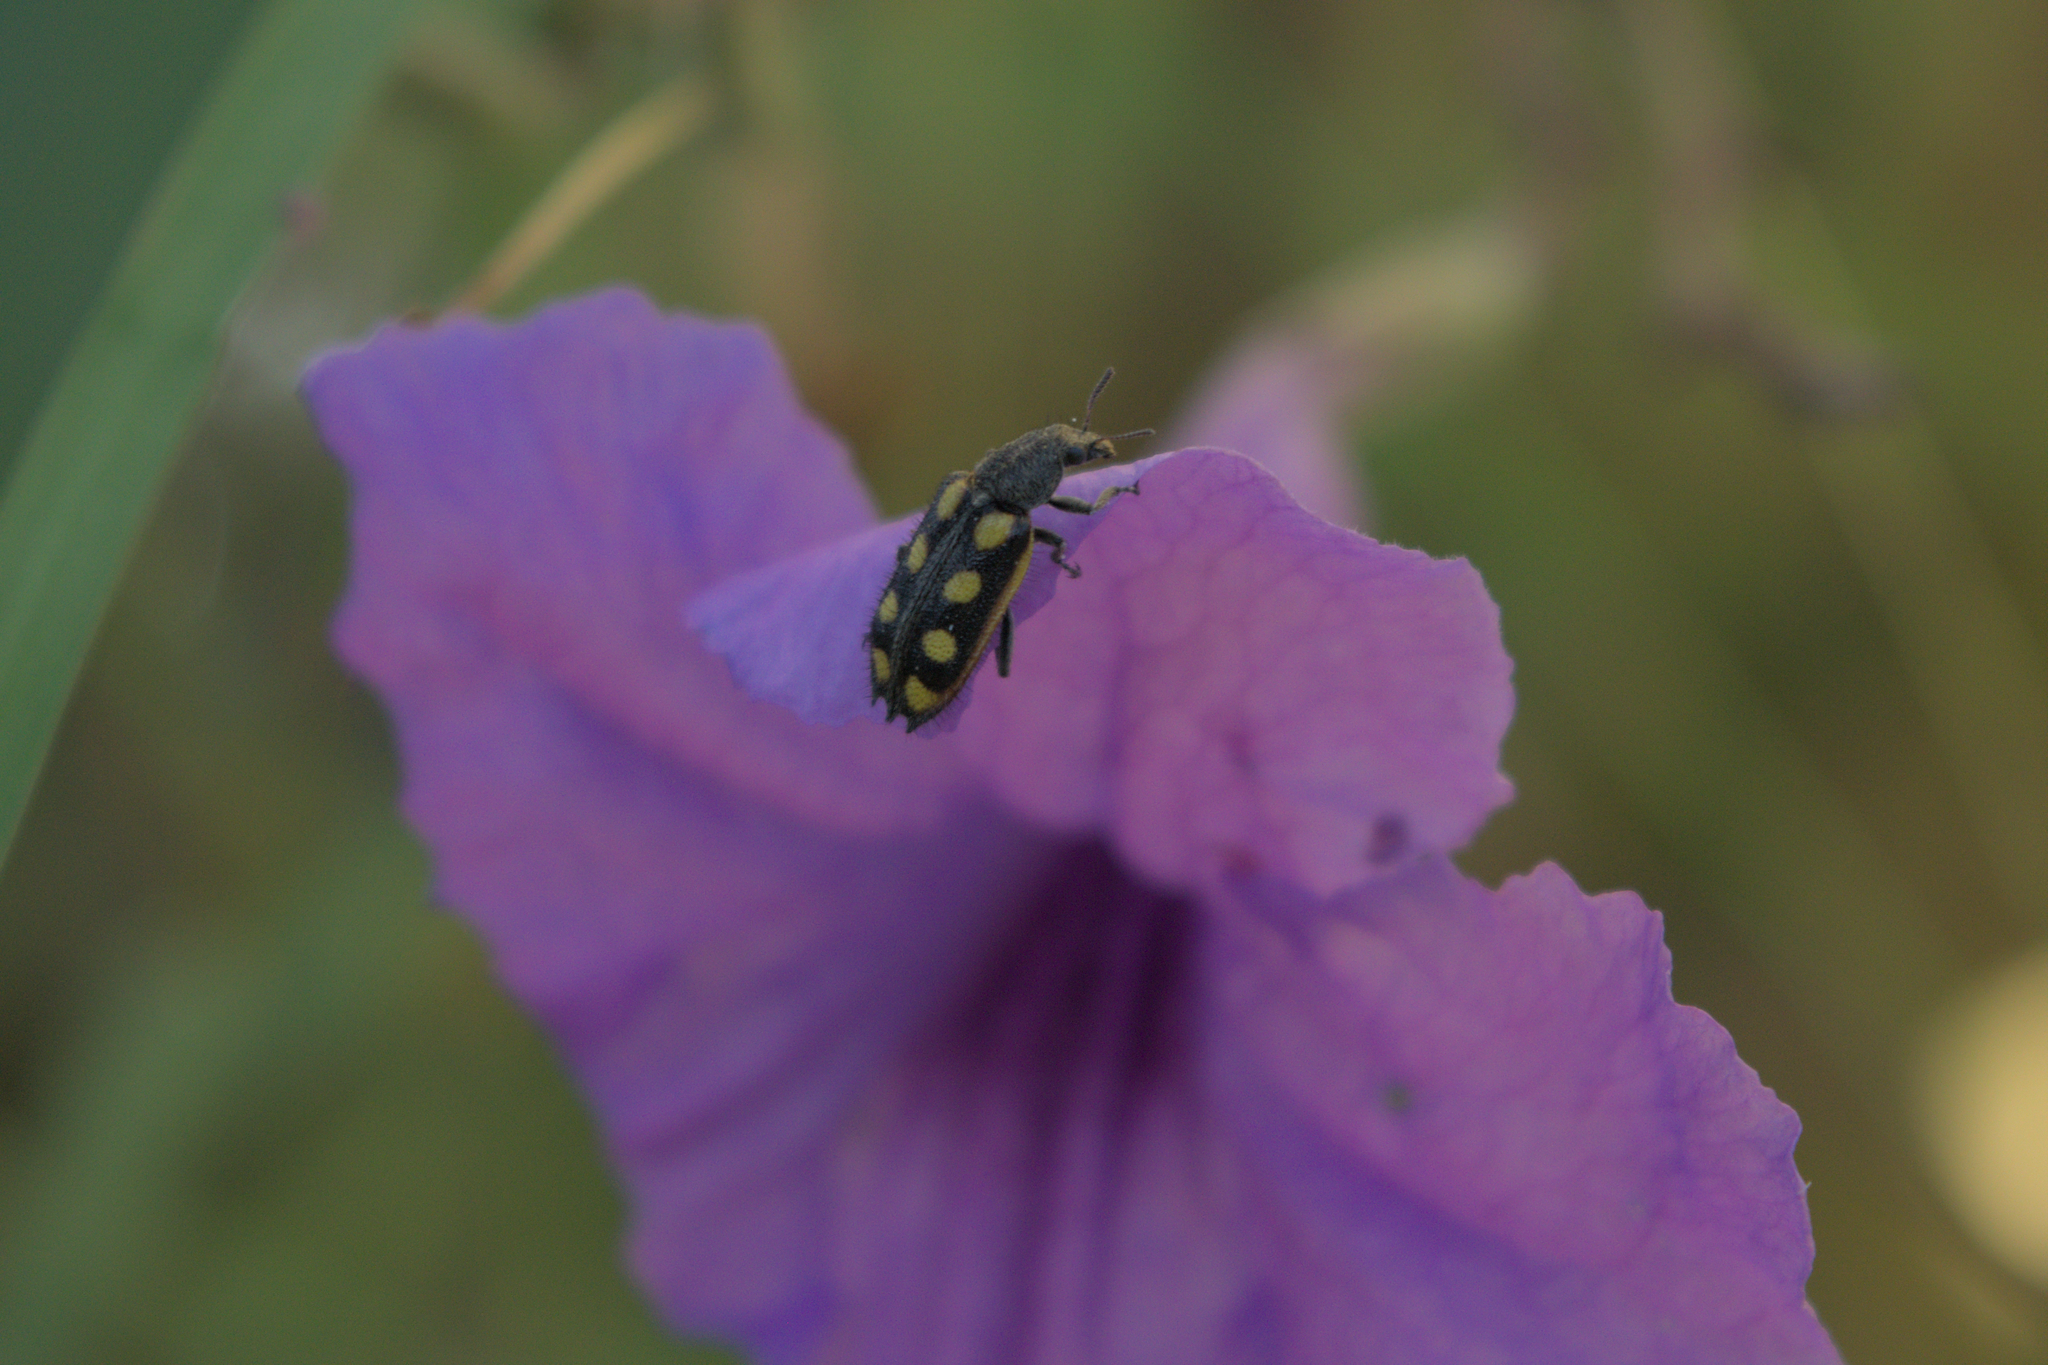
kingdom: Animalia
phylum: Arthropoda
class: Insecta
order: Coleoptera
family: Melyridae
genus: Astylus
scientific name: Astylus
